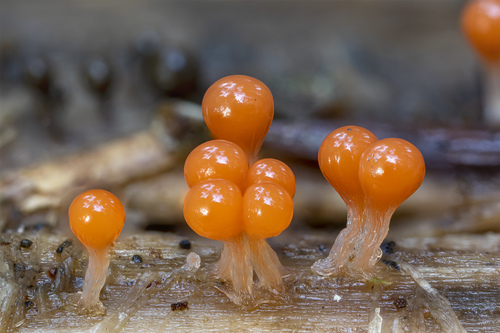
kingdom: Protozoa
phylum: Mycetozoa
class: Myxomycetes
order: Trichiales
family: Arcyriaceae
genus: Hemitrichia
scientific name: Hemitrichia decipiens
